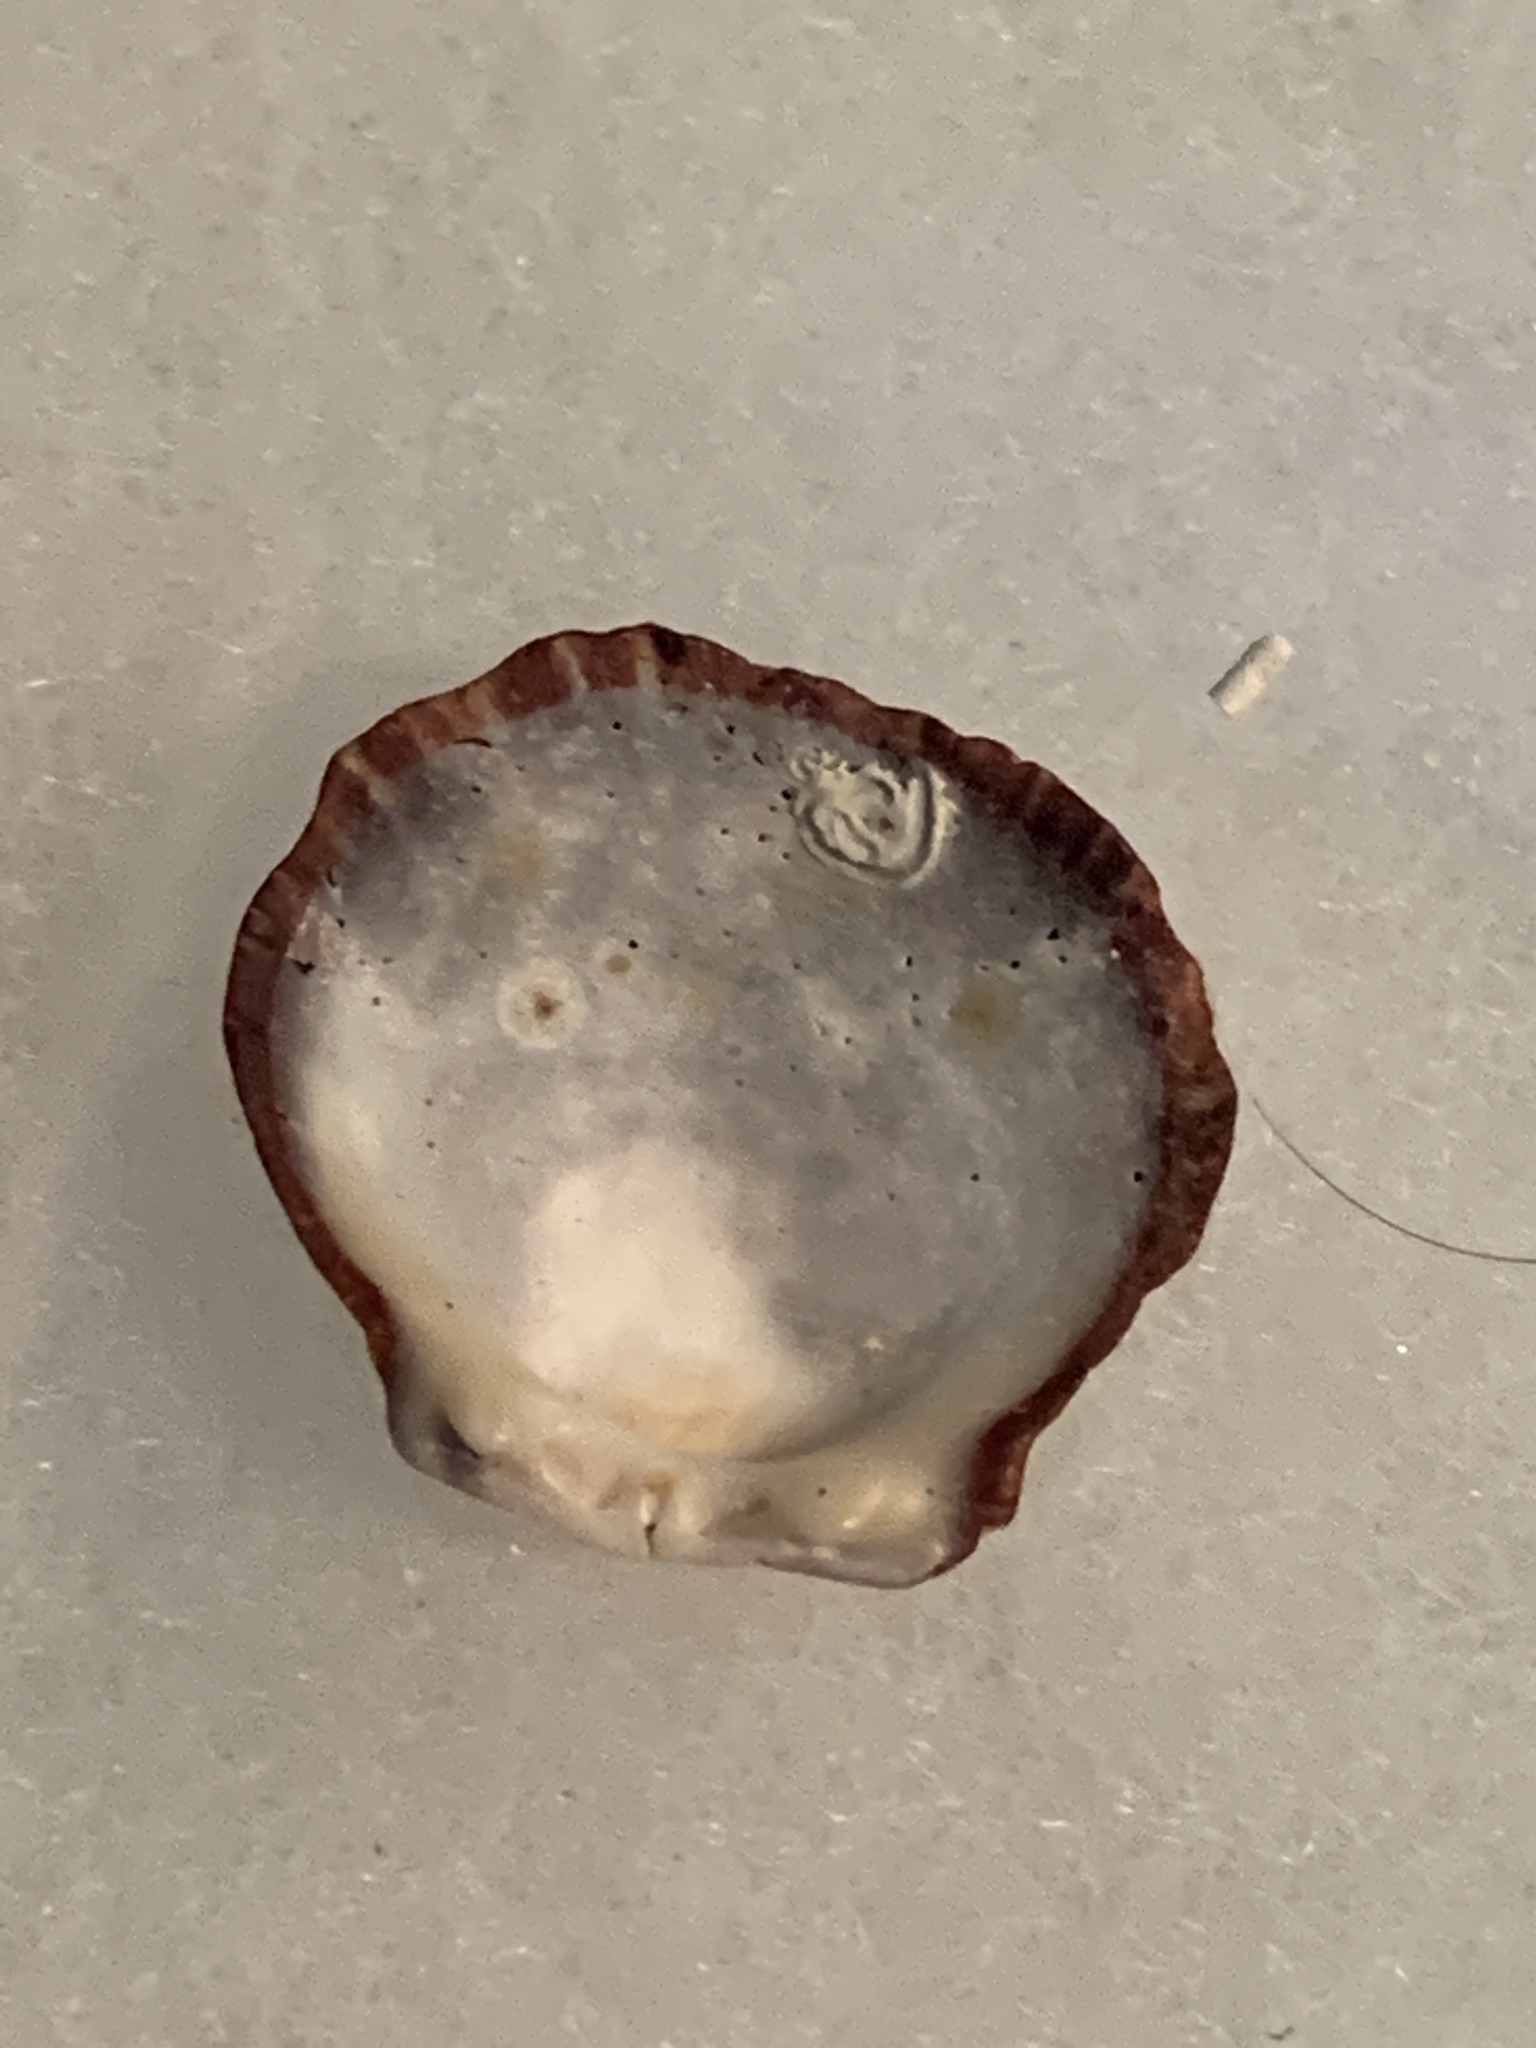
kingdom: Animalia
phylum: Mollusca
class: Bivalvia
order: Pectinida
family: Spondylidae
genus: Spondylus
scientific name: Spondylus tenuis
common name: Digitate thorny oyster
